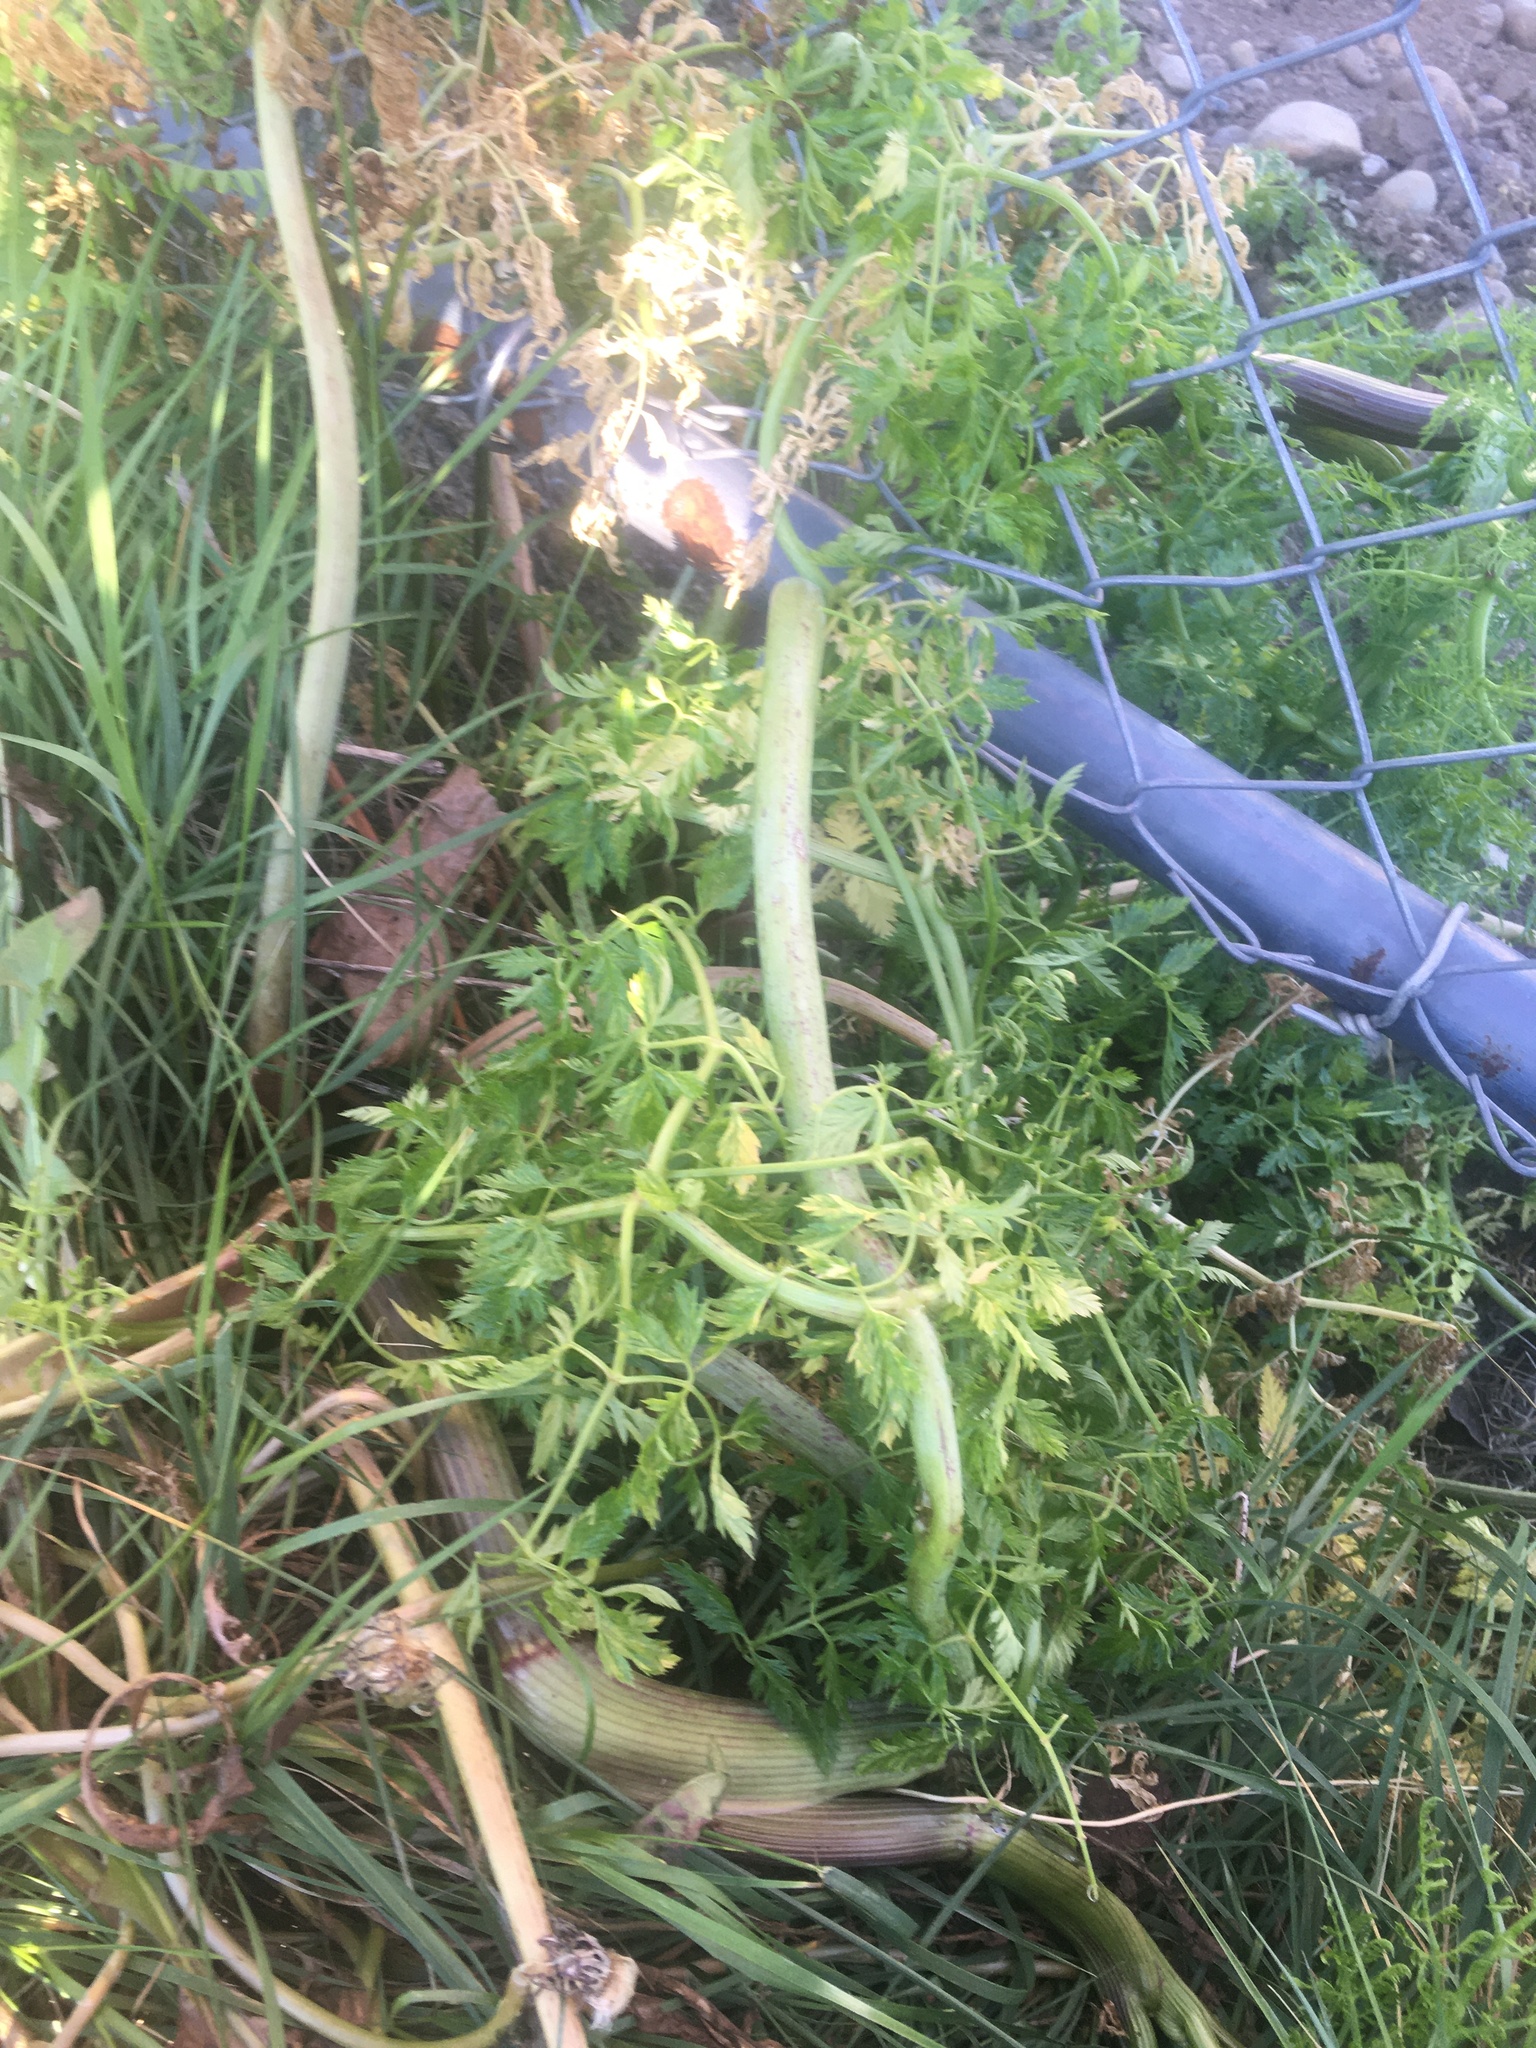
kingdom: Plantae
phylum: Tracheophyta
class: Magnoliopsida
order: Apiales
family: Apiaceae
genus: Conium
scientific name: Conium maculatum
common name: Hemlock
